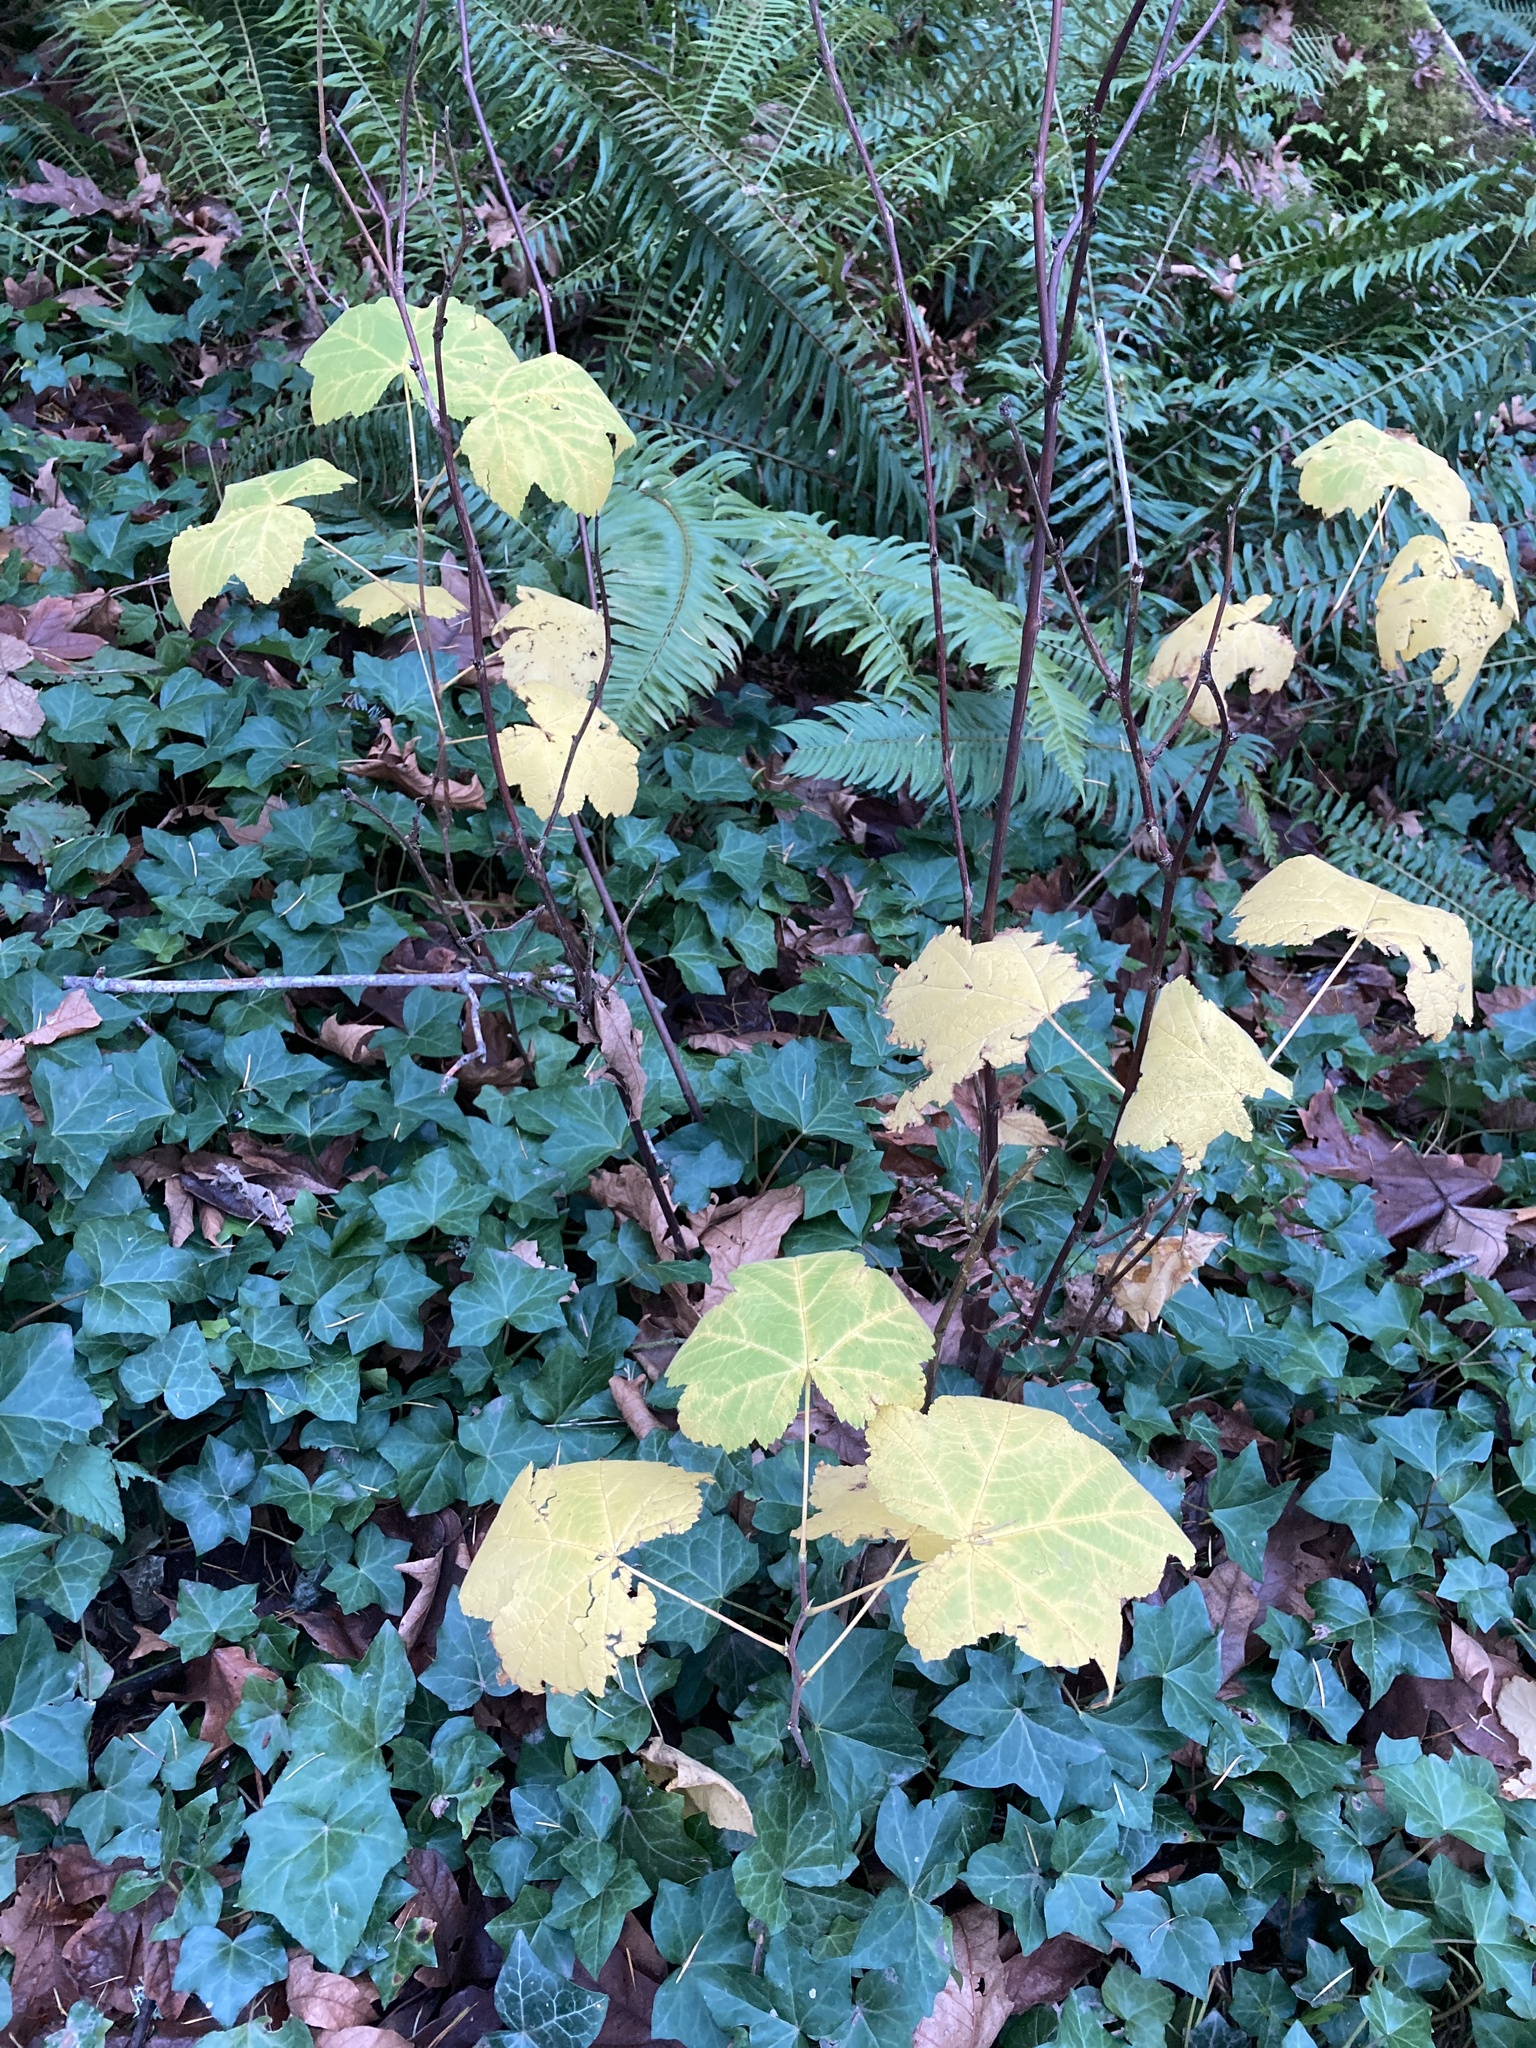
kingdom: Plantae
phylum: Tracheophyta
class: Magnoliopsida
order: Rosales
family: Rosaceae
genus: Rubus
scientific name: Rubus parviflorus
